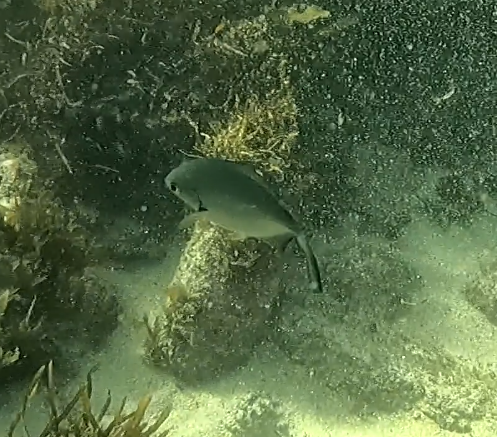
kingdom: Animalia
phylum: Chordata
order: Perciformes
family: Kyphosidae
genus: Scorpis
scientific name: Scorpis lineolata
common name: Sweep
